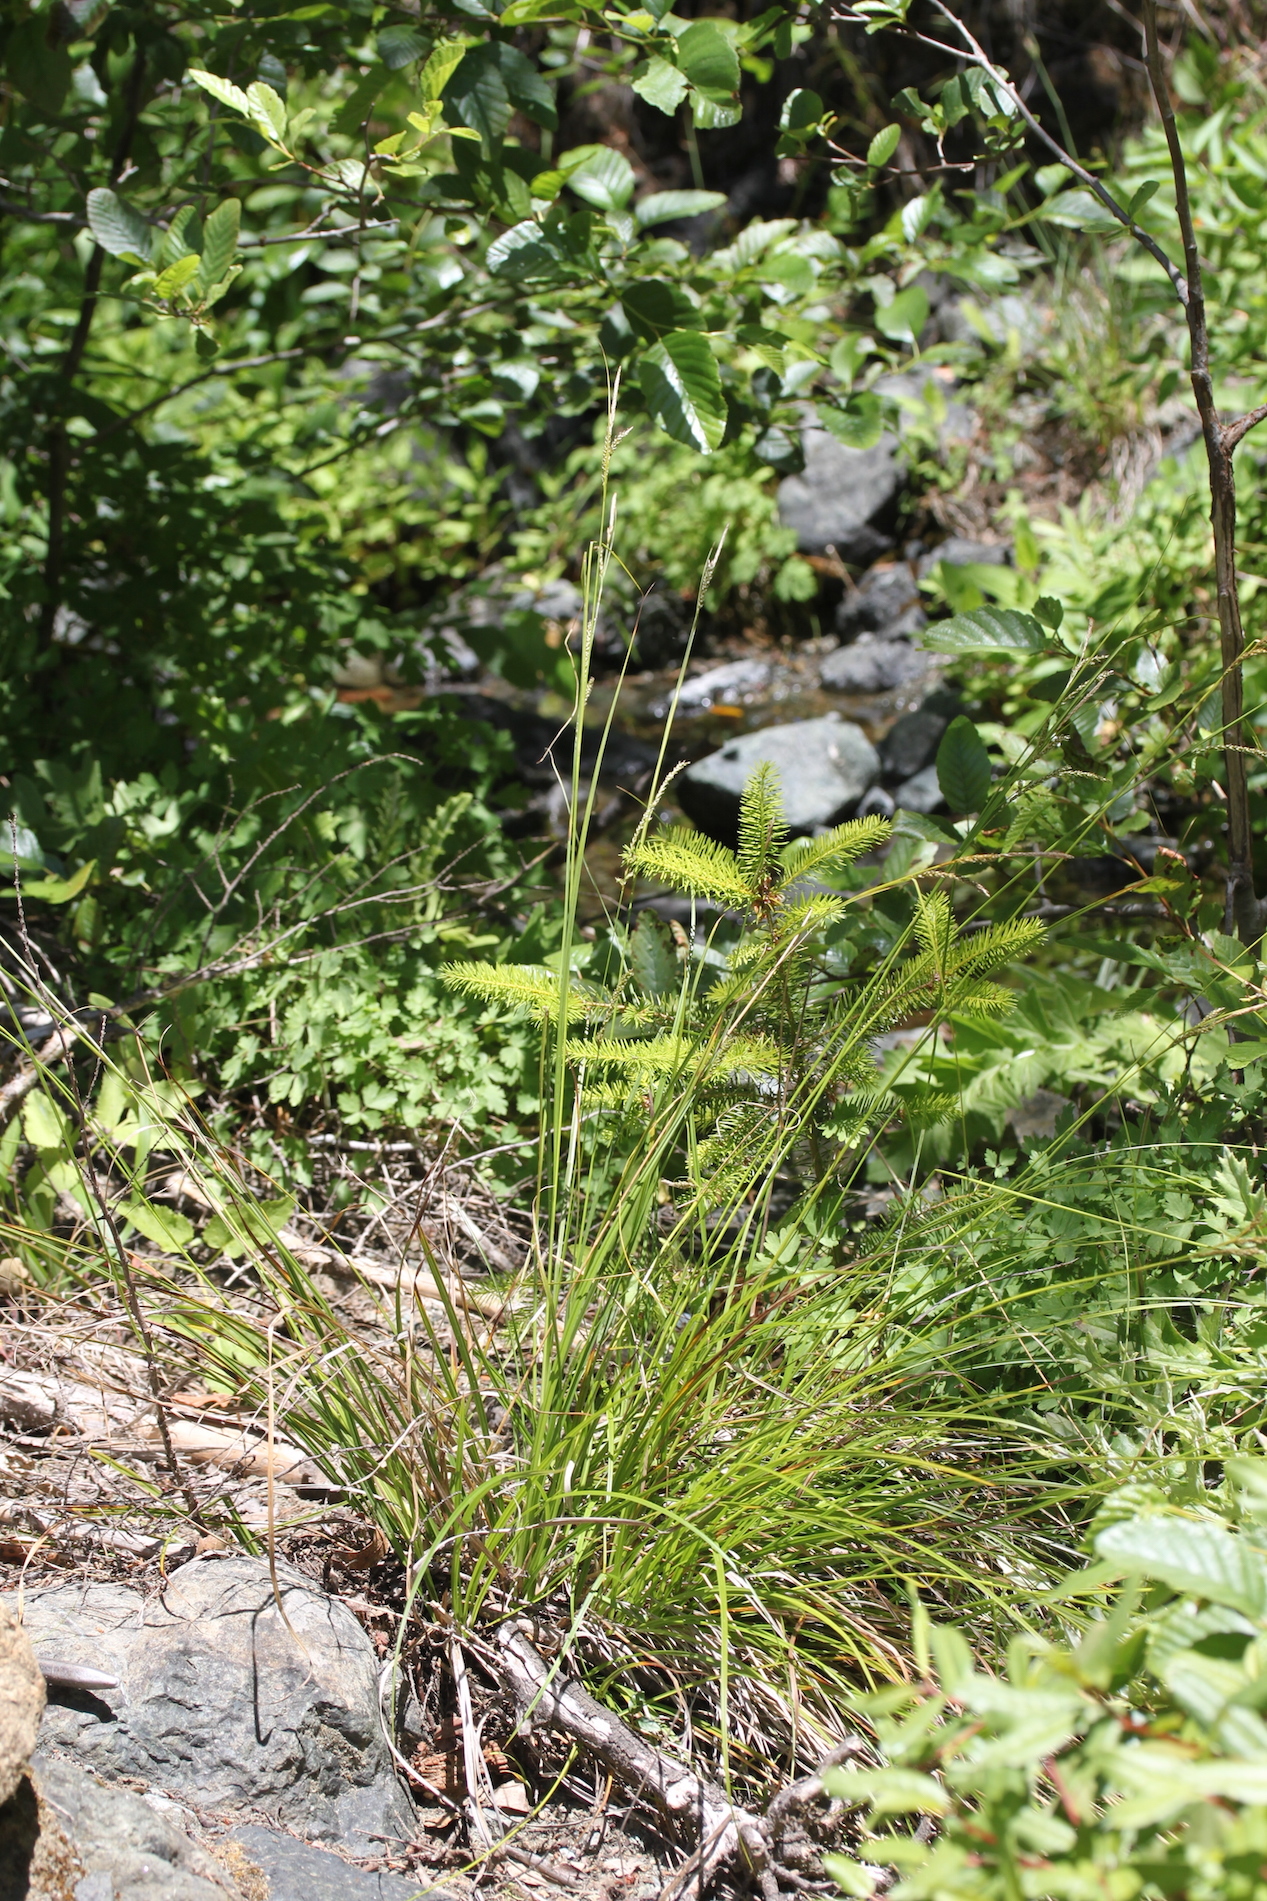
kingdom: Plantae
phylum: Tracheophyta
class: Liliopsida
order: Poales
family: Cyperaceae
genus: Carex
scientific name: Carex mendocinensis
